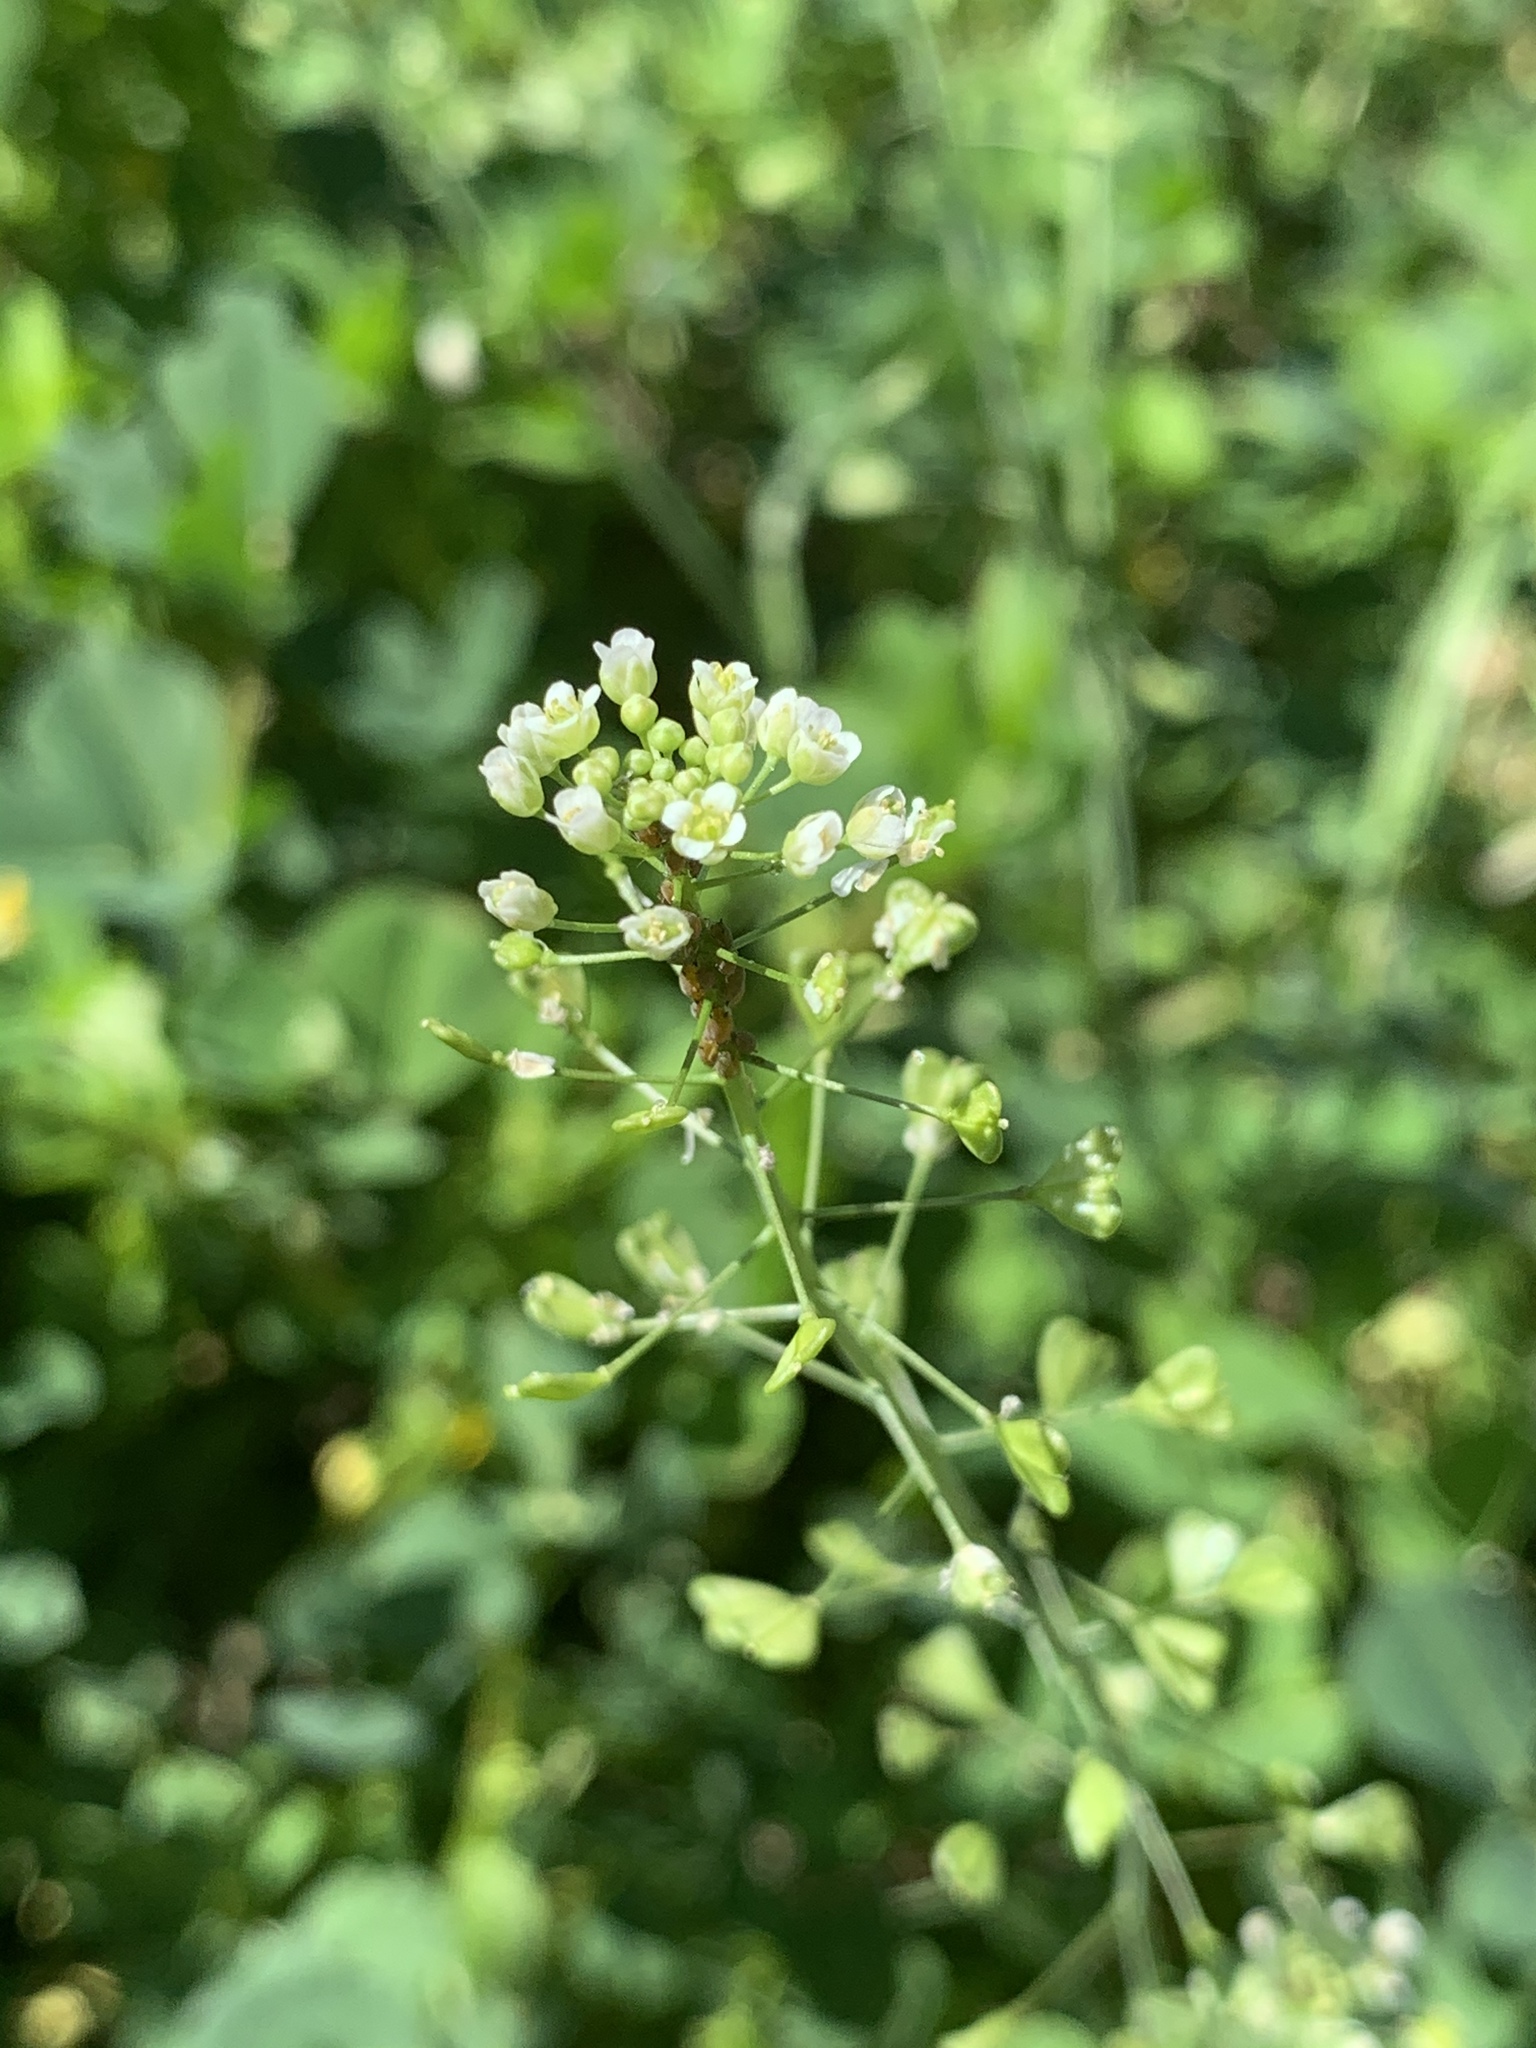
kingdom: Plantae
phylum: Tracheophyta
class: Magnoliopsida
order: Brassicales
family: Brassicaceae
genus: Capsella
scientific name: Capsella bursa-pastoris
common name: Shepherd's purse
